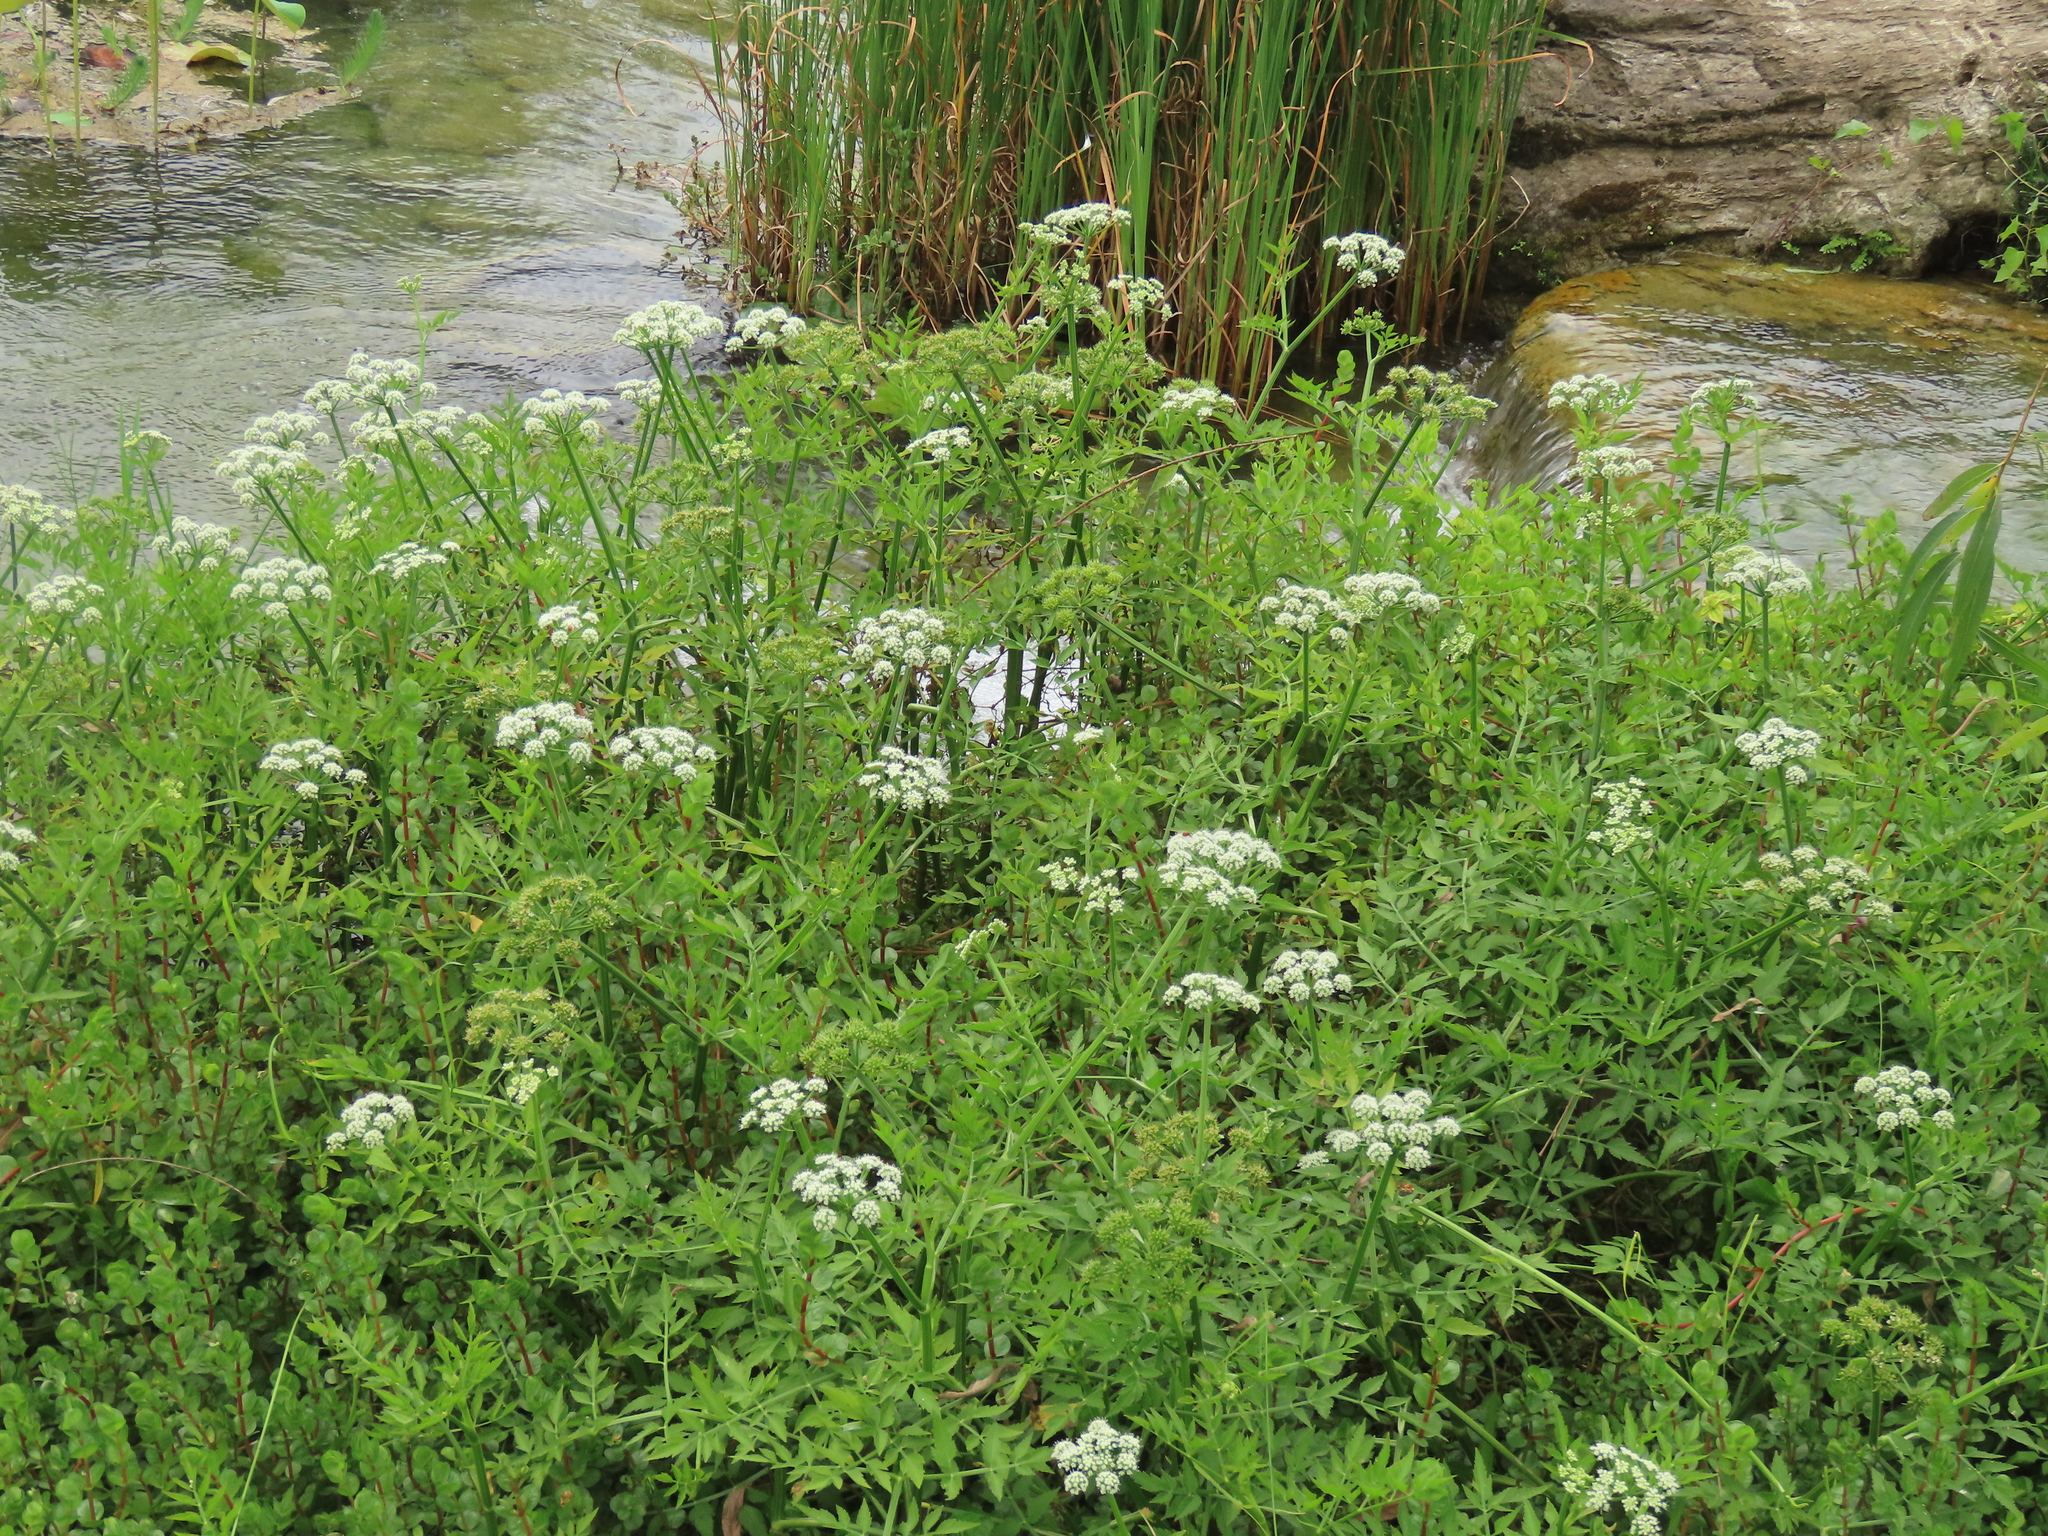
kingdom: Plantae
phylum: Tracheophyta
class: Magnoliopsida
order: Apiales
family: Apiaceae
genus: Oenanthe
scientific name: Oenanthe javanica
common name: Java water-dropwort
